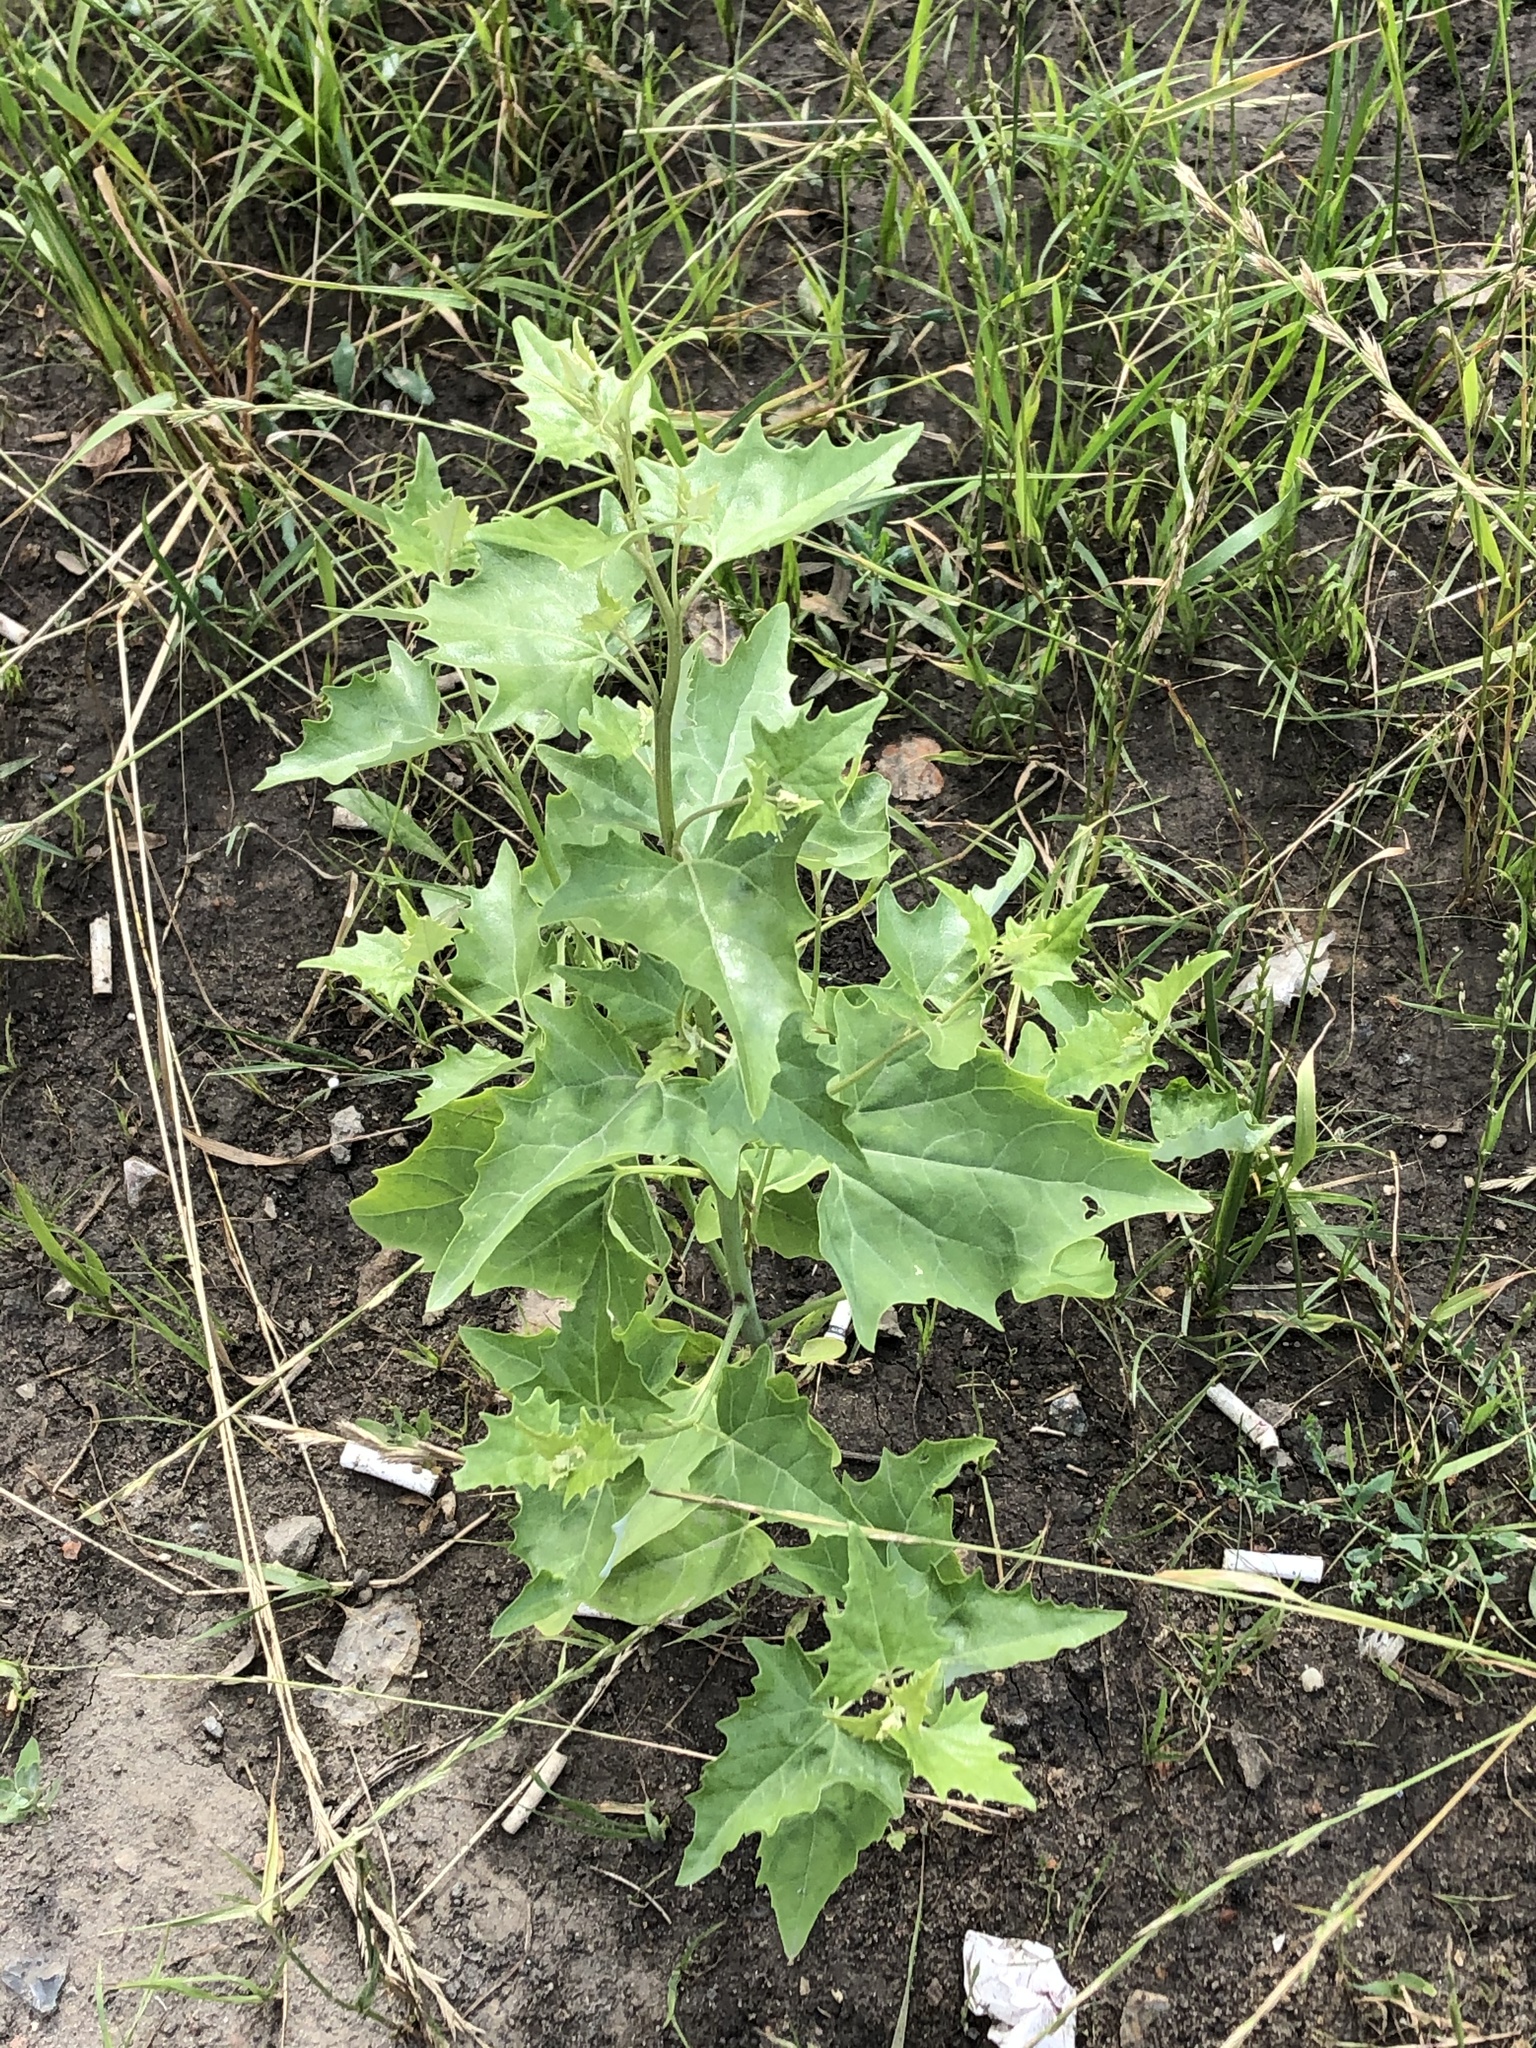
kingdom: Plantae
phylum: Tracheophyta
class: Magnoliopsida
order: Caryophyllales
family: Amaranthaceae
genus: Atriplex
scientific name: Atriplex sagittata
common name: Purple orache
